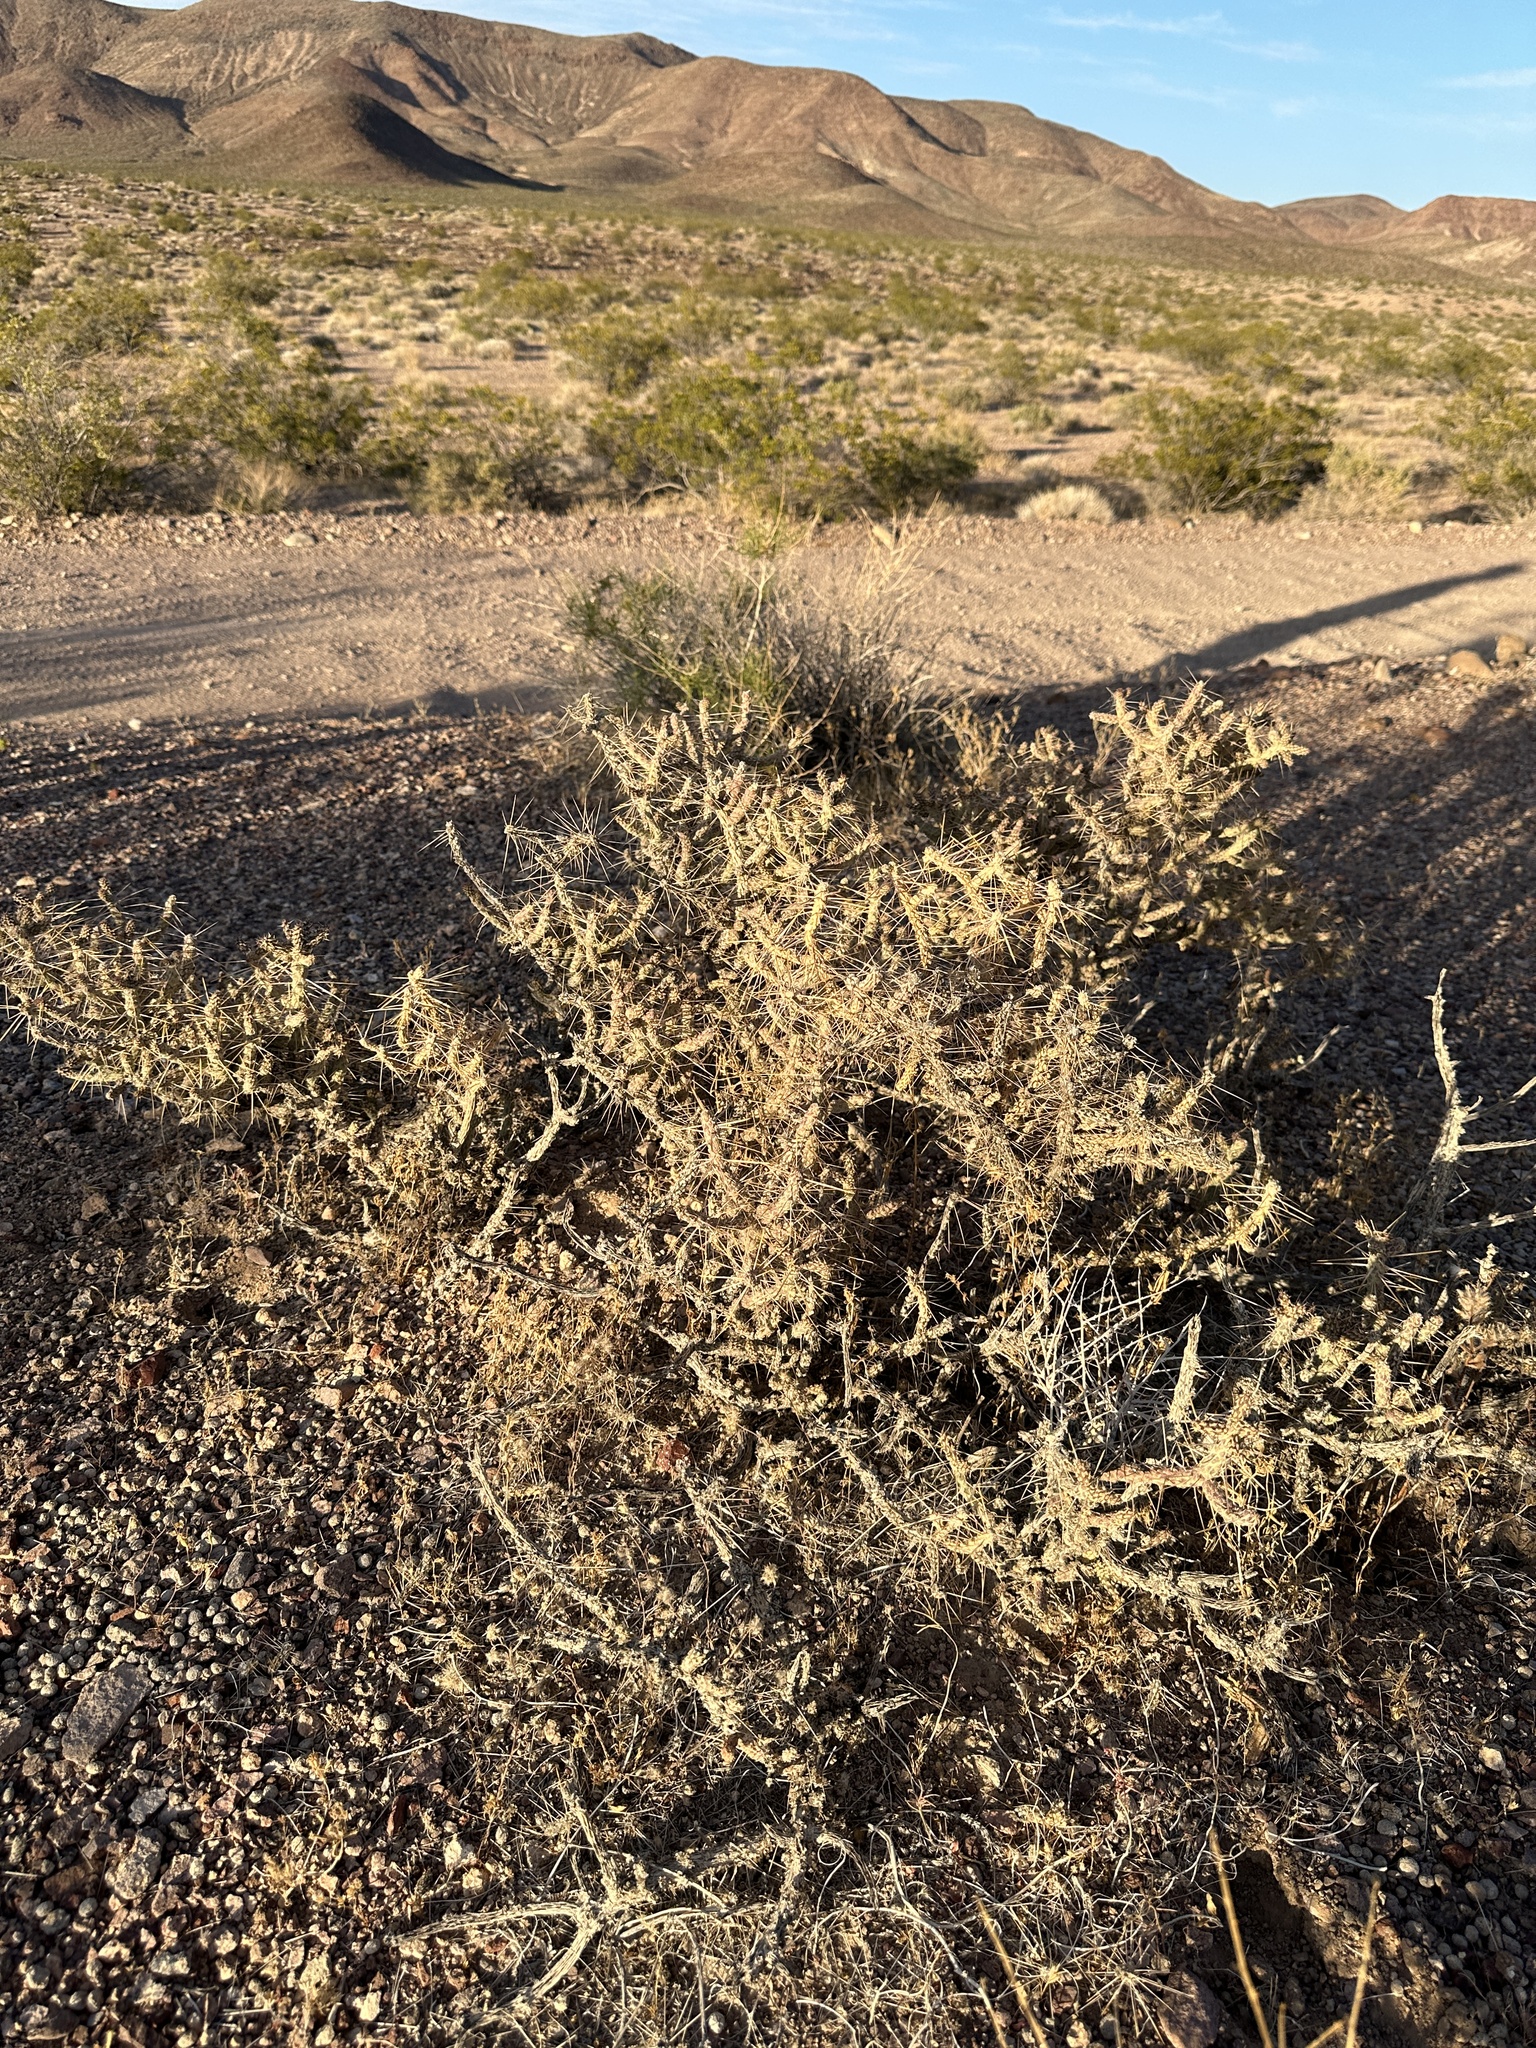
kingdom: Plantae
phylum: Tracheophyta
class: Magnoliopsida
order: Caryophyllales
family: Cactaceae
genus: Cylindropuntia
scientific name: Cylindropuntia ramosissima
